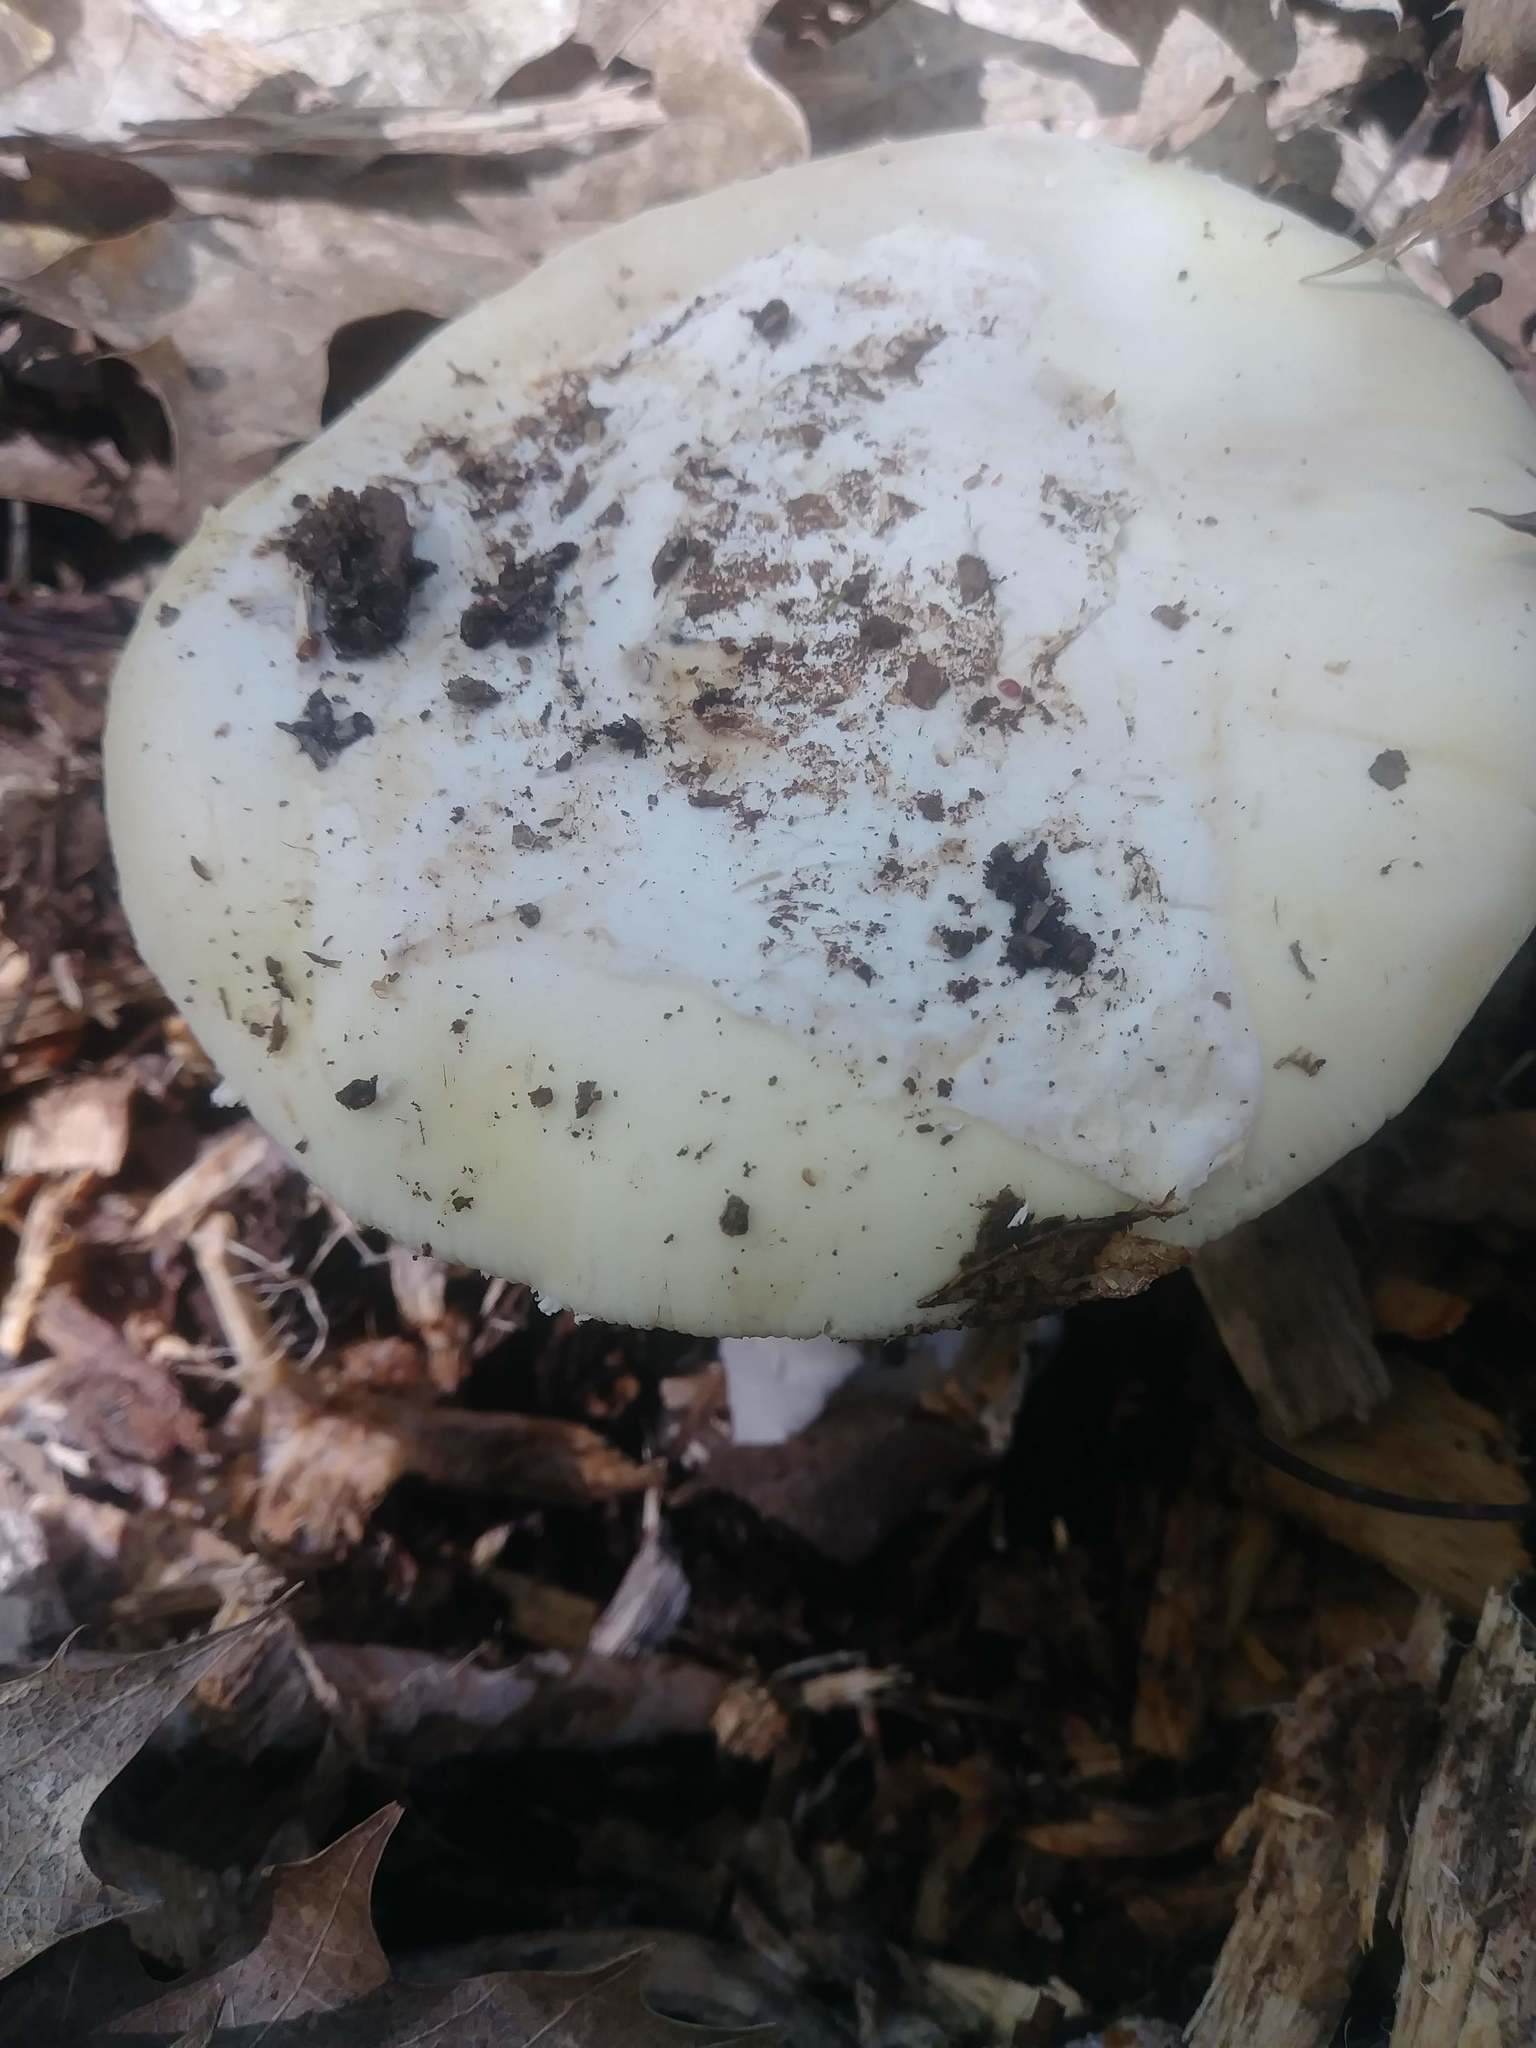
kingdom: Fungi
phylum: Basidiomycota
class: Agaricomycetes
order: Agaricales
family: Amanitaceae
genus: Amanita
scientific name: Amanita vernicoccora
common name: Spring coccora
